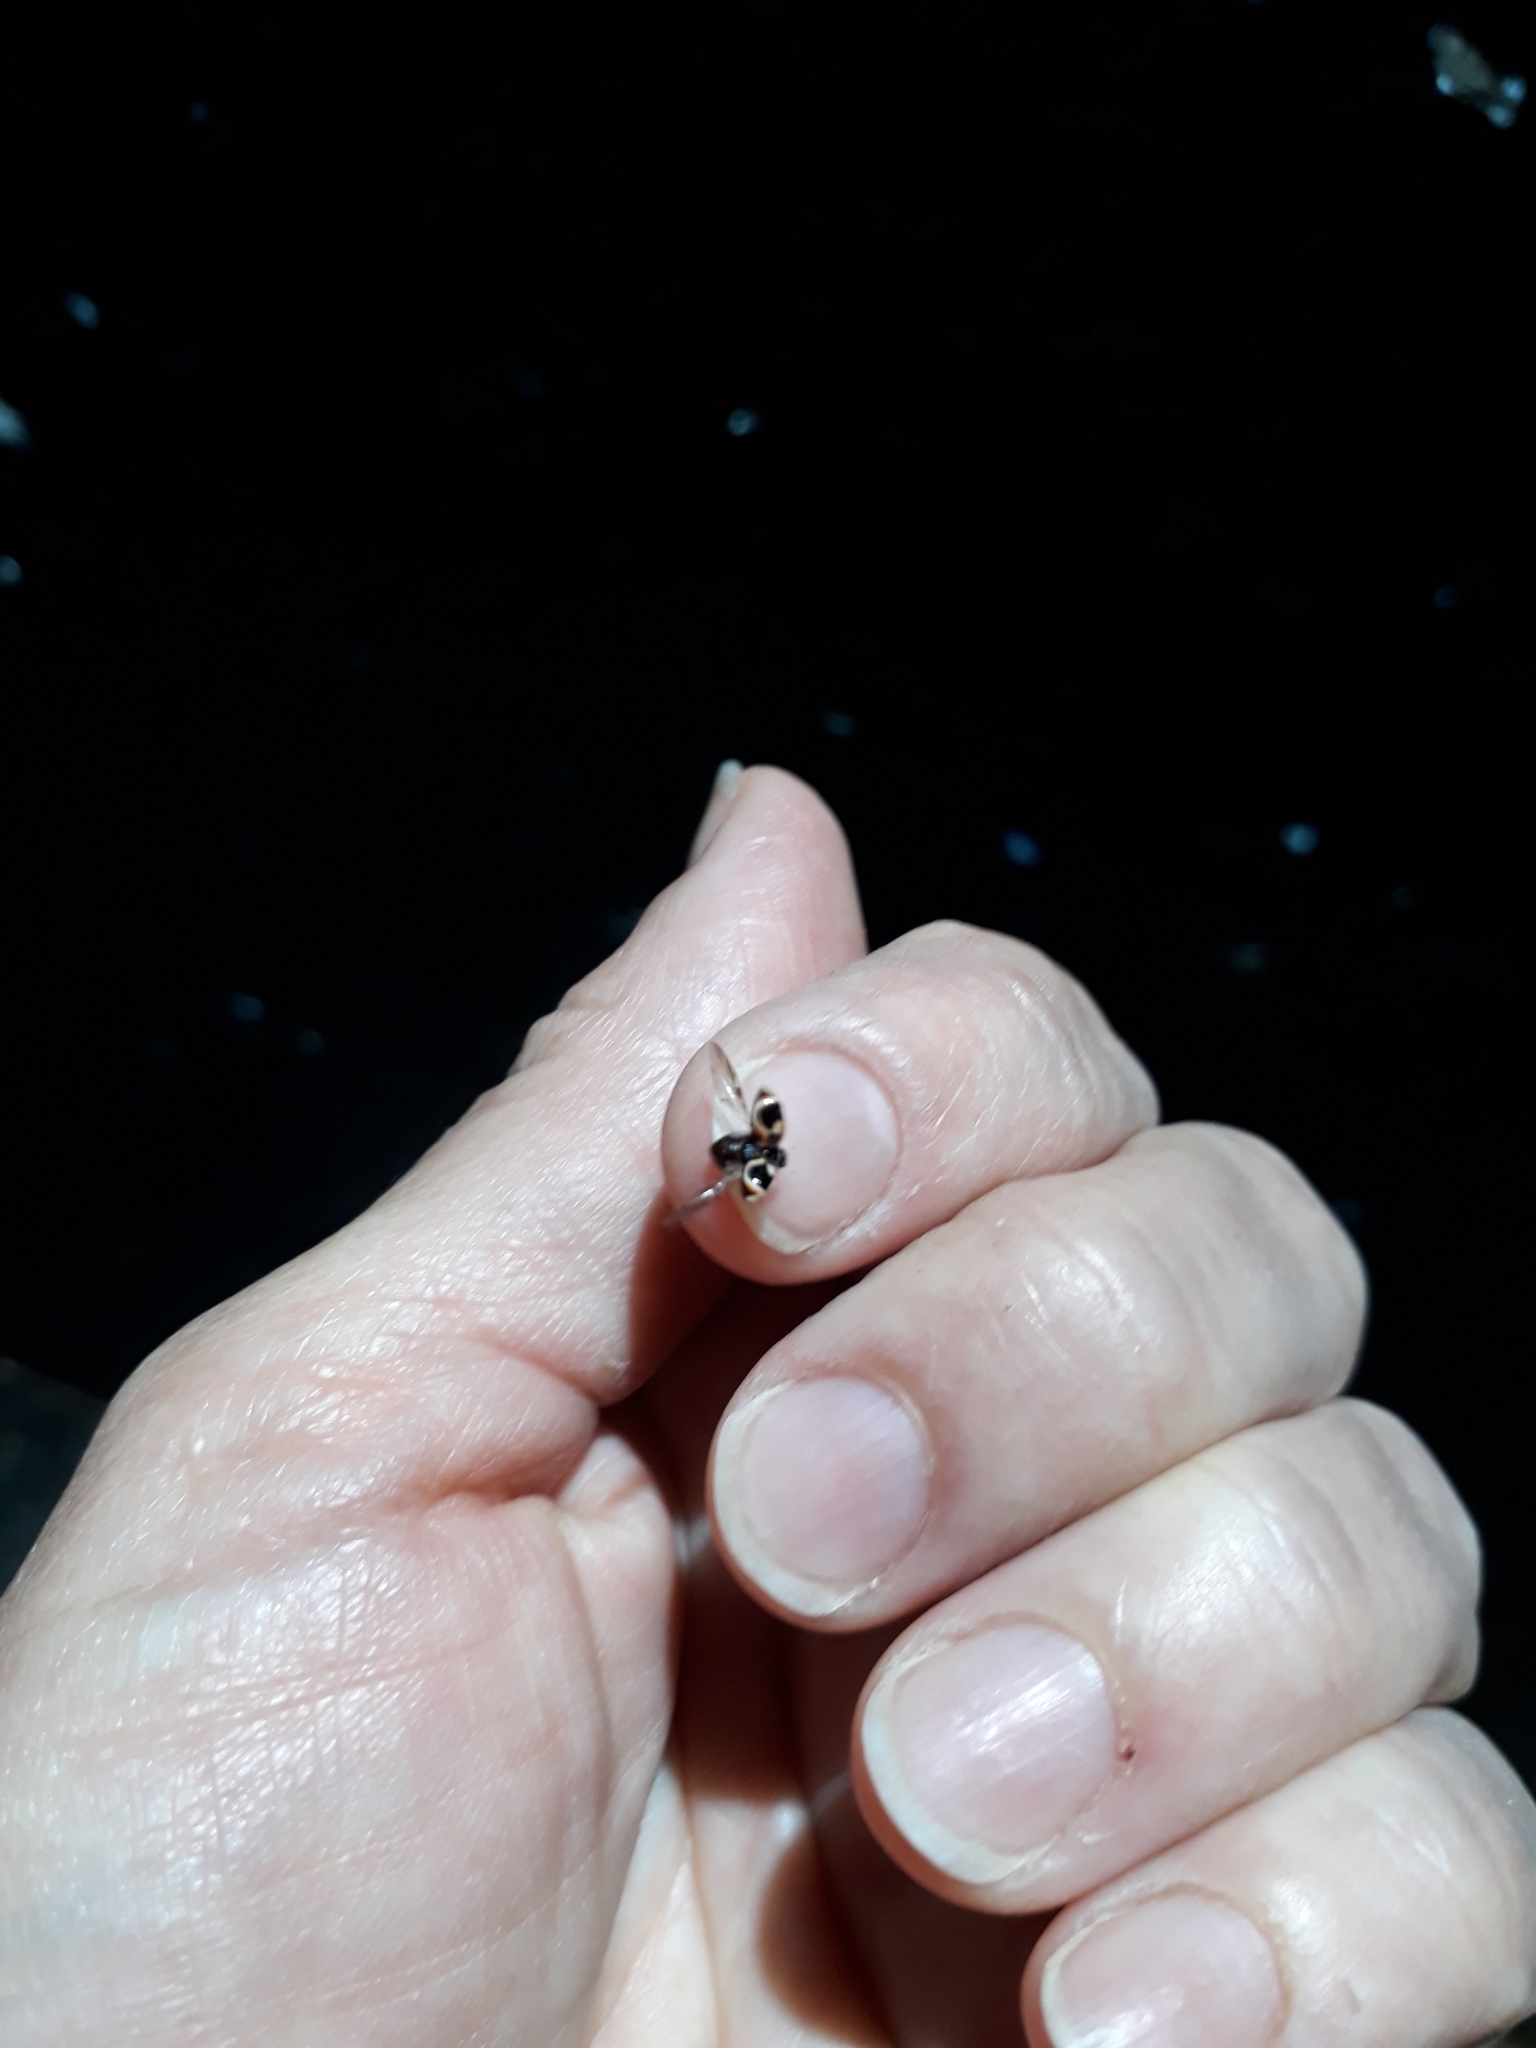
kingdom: Animalia
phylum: Arthropoda
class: Insecta
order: Coleoptera
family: Coccinellidae
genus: Cycloneda
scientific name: Cycloneda ancoralis
